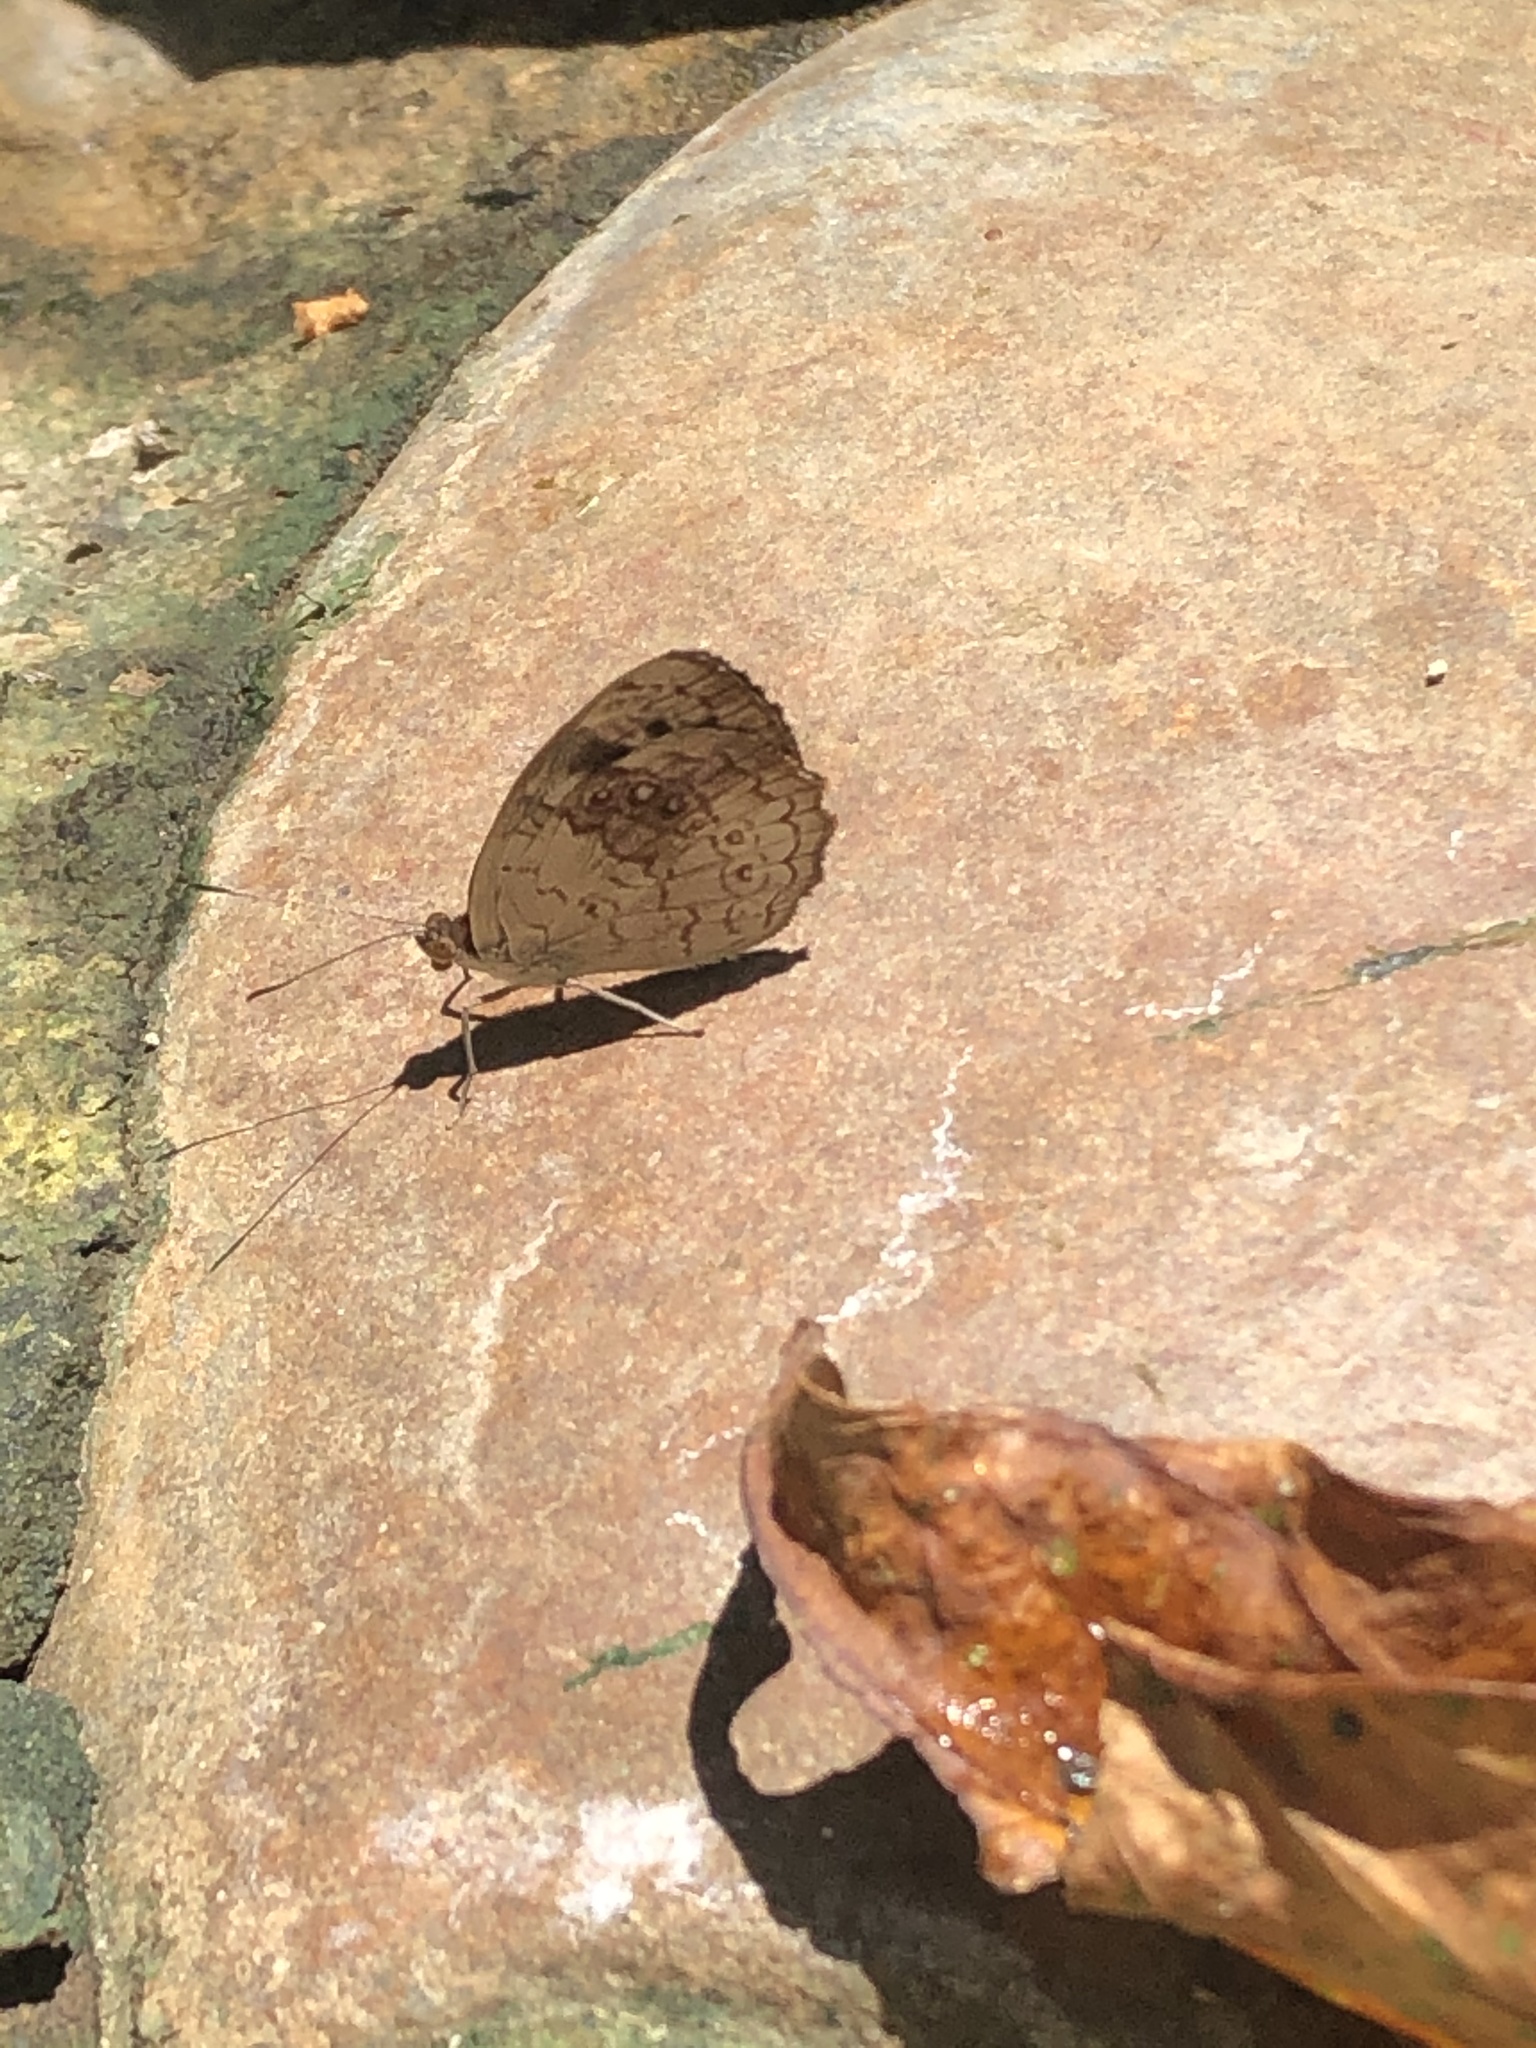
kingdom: Animalia
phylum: Arthropoda
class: Insecta
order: Lepidoptera
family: Nymphalidae
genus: Eunica
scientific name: Eunica marsolia
